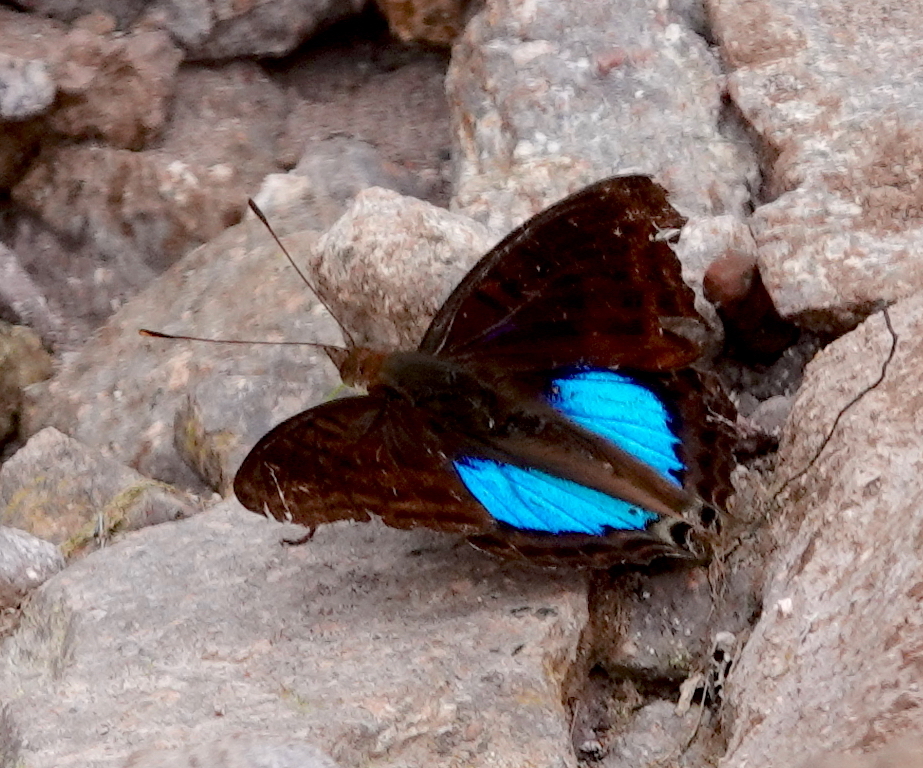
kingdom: Animalia
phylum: Arthropoda
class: Insecta
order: Lepidoptera
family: Nymphalidae
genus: Doxocopa
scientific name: Doxocopa cyane
